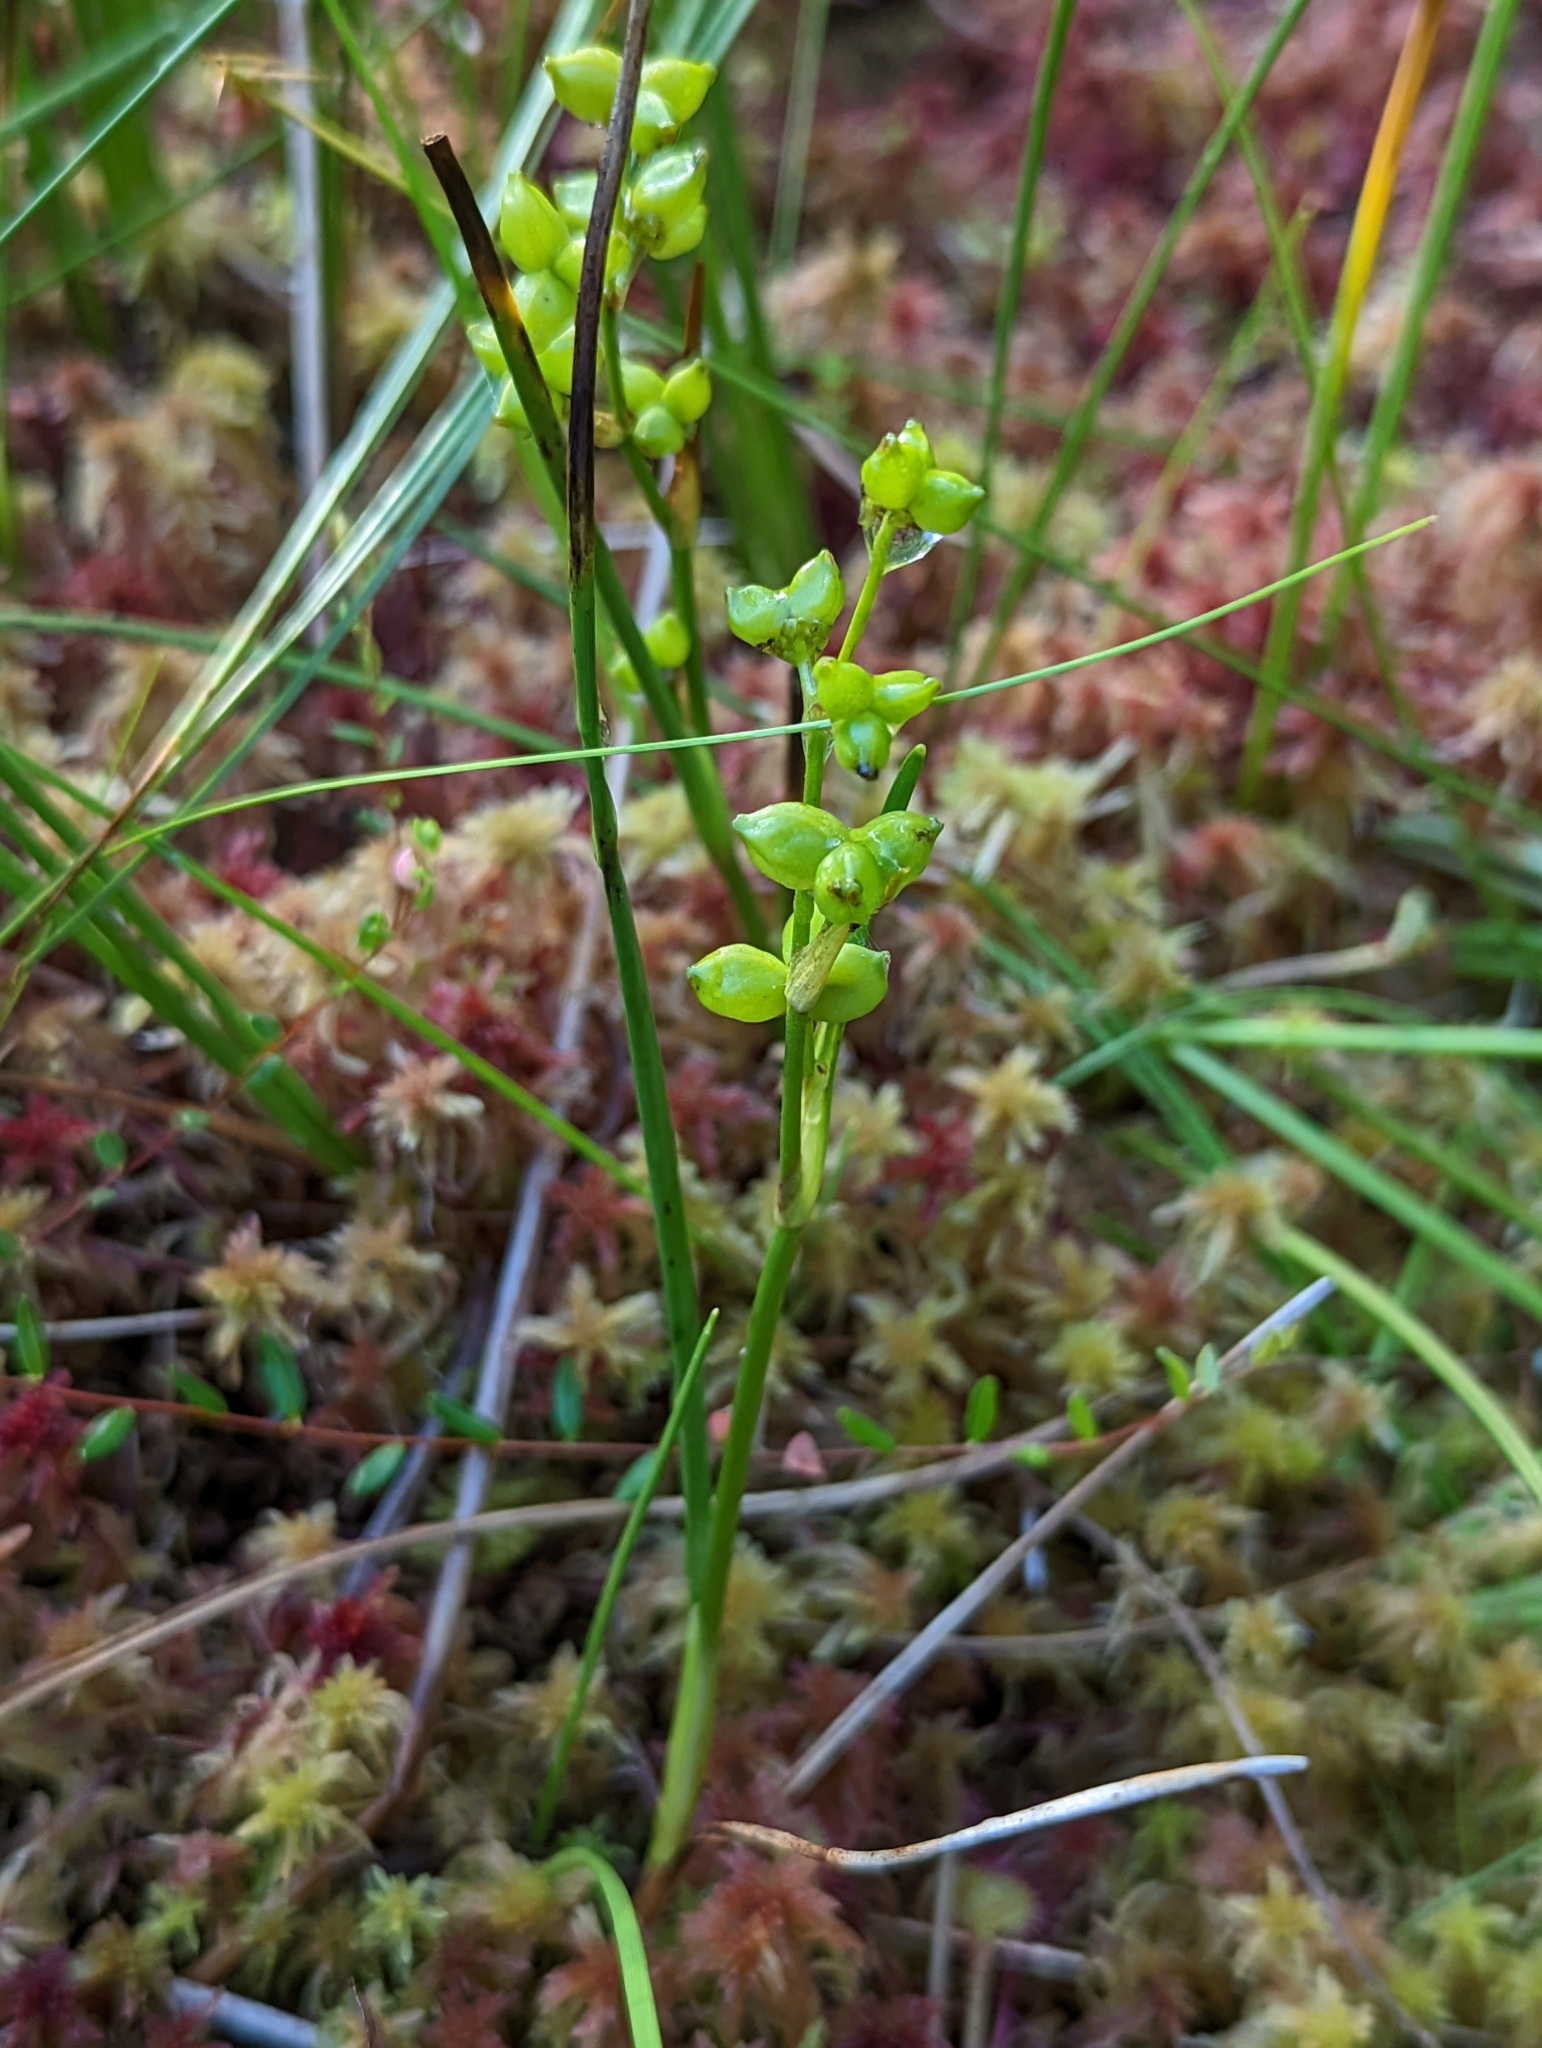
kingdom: Plantae
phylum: Tracheophyta
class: Liliopsida
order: Alismatales
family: Scheuchzeriaceae
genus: Scheuchzeria
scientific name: Scheuchzeria palustris
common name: Rannoch-rush
